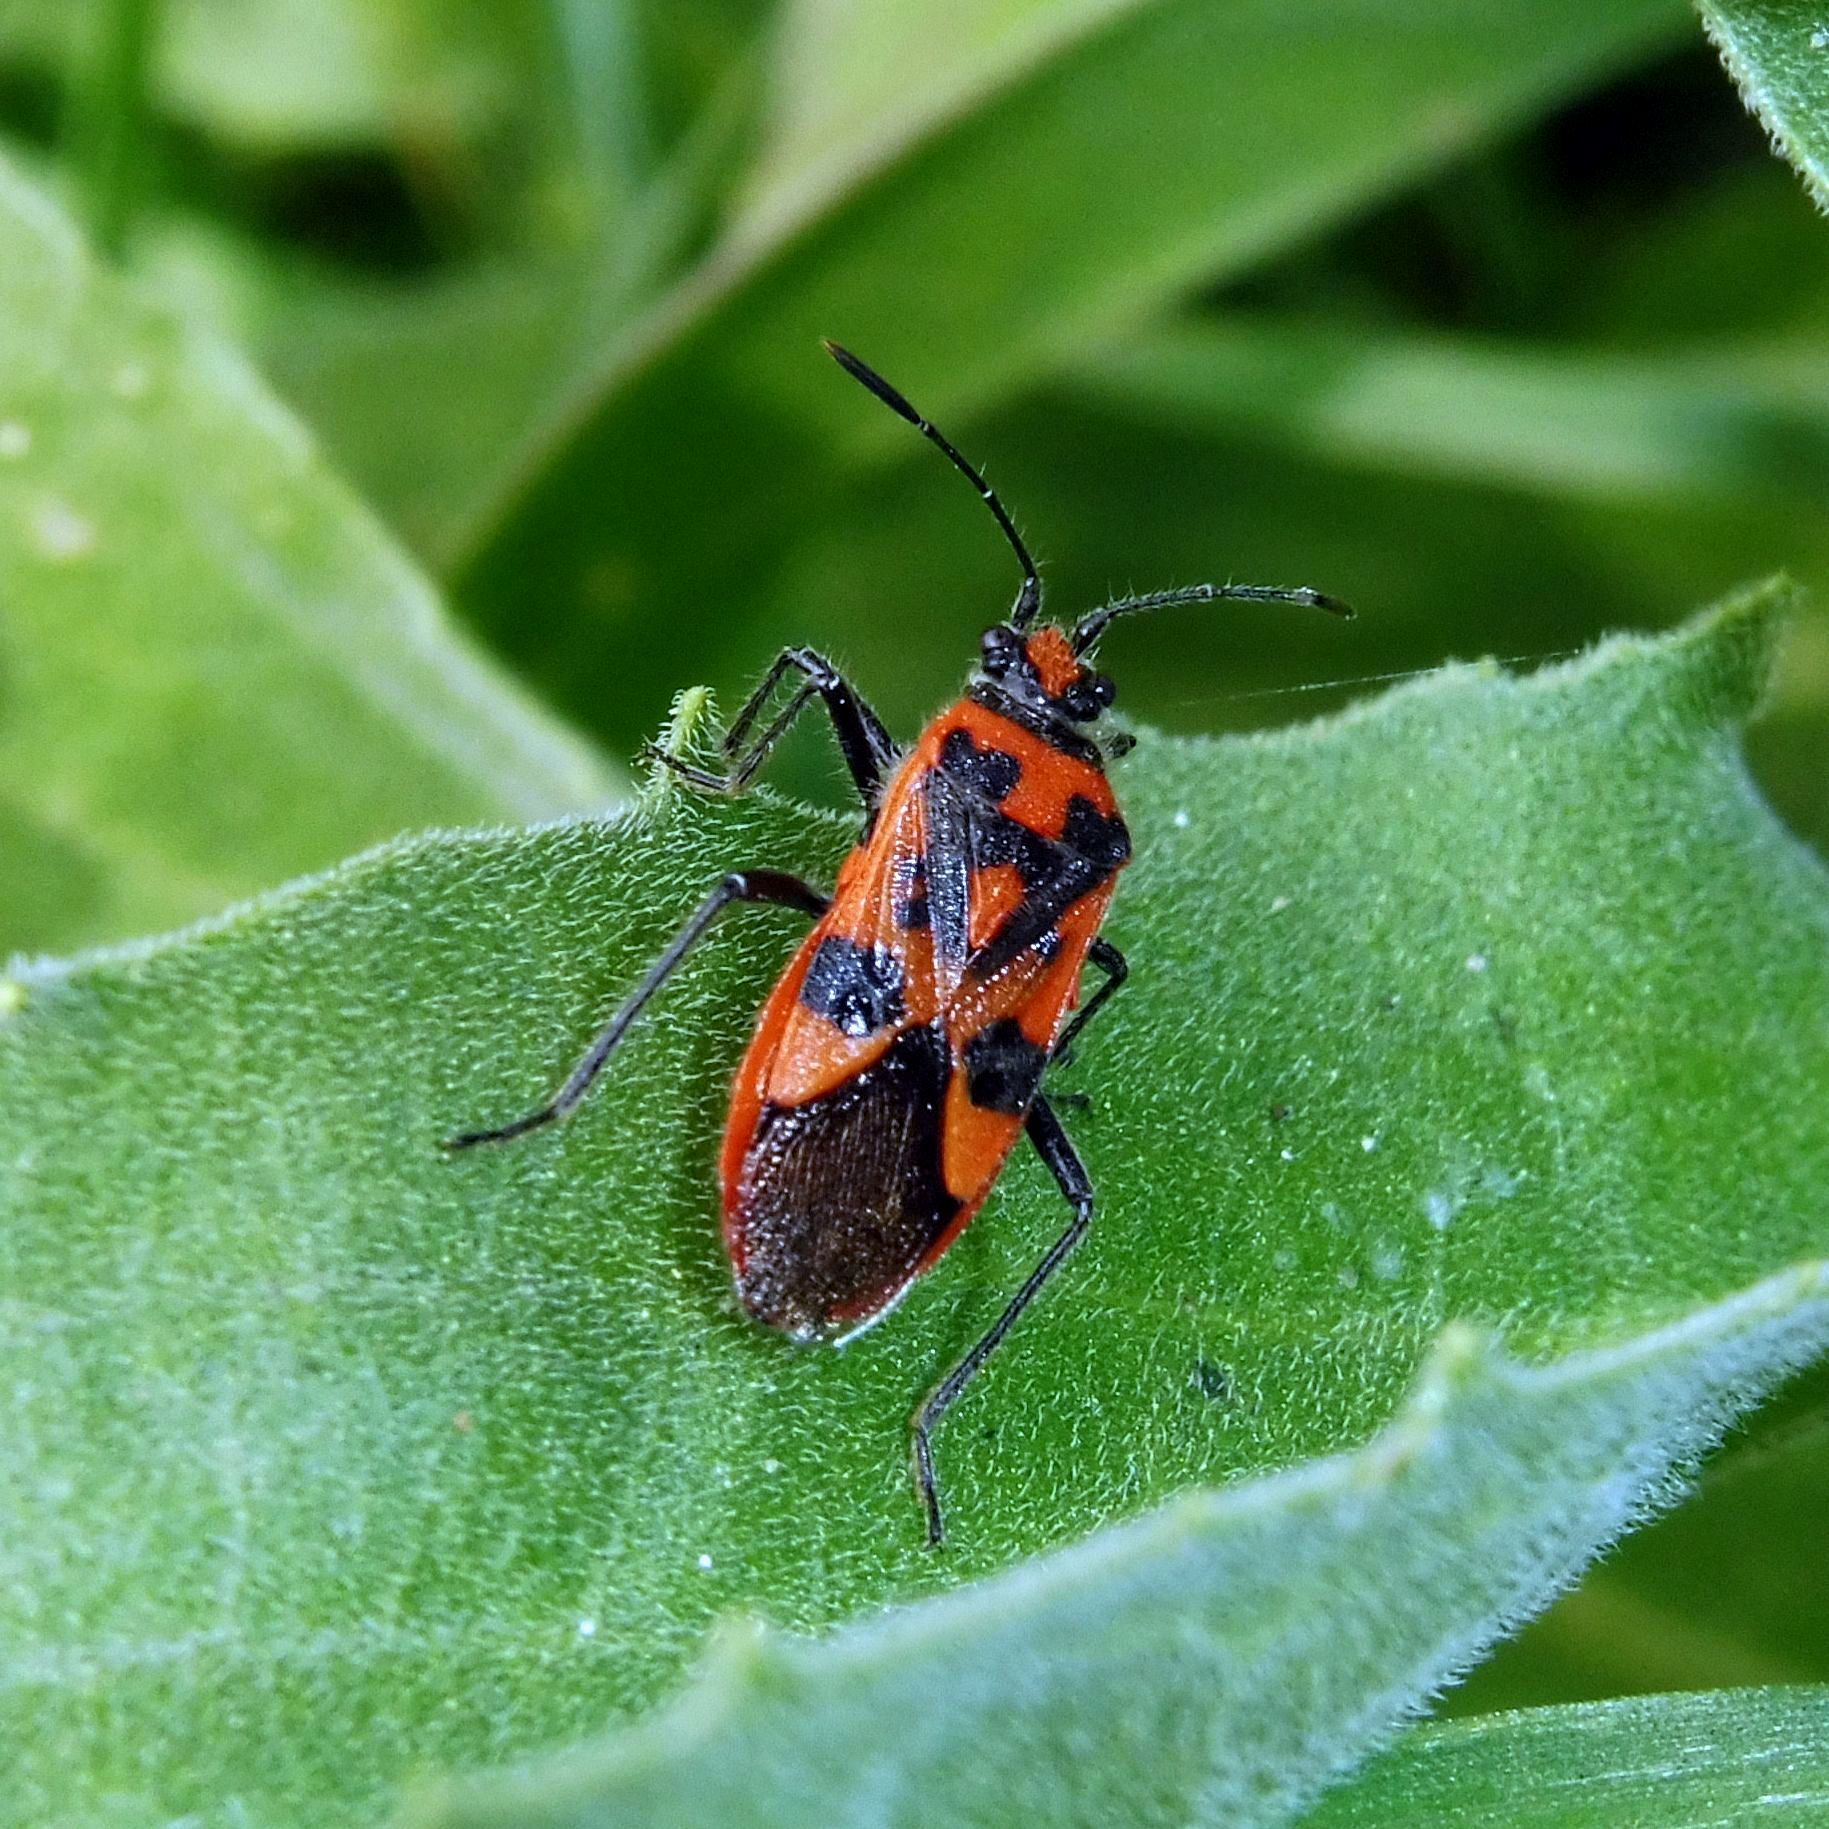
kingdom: Animalia
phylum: Arthropoda
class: Insecta
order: Hemiptera
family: Rhopalidae
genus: Corizus
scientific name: Corizus hyoscyami
